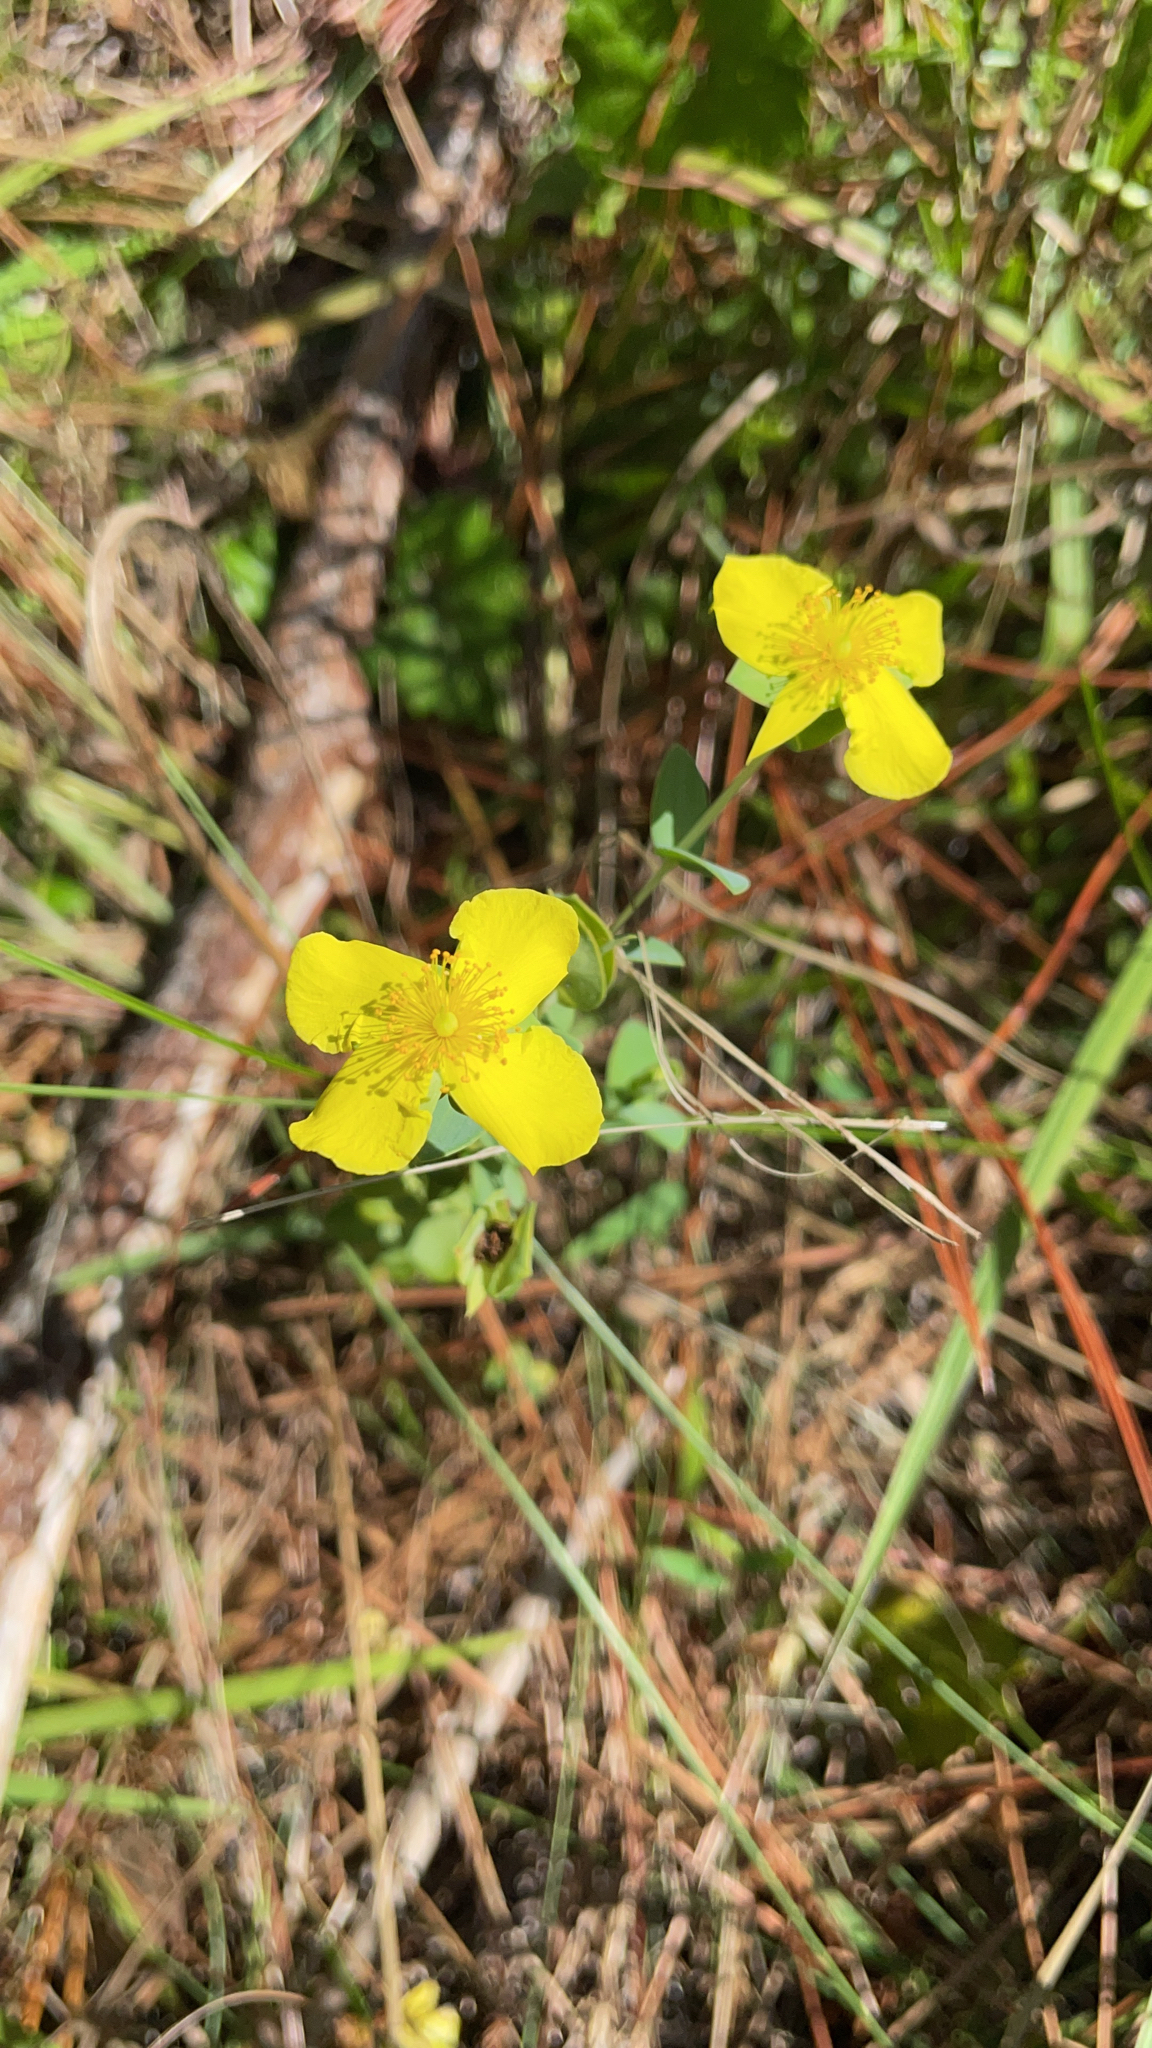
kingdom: Plantae
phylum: Tracheophyta
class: Magnoliopsida
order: Malpighiales
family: Hypericaceae
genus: Hypericum
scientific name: Hypericum tetrapetalum
